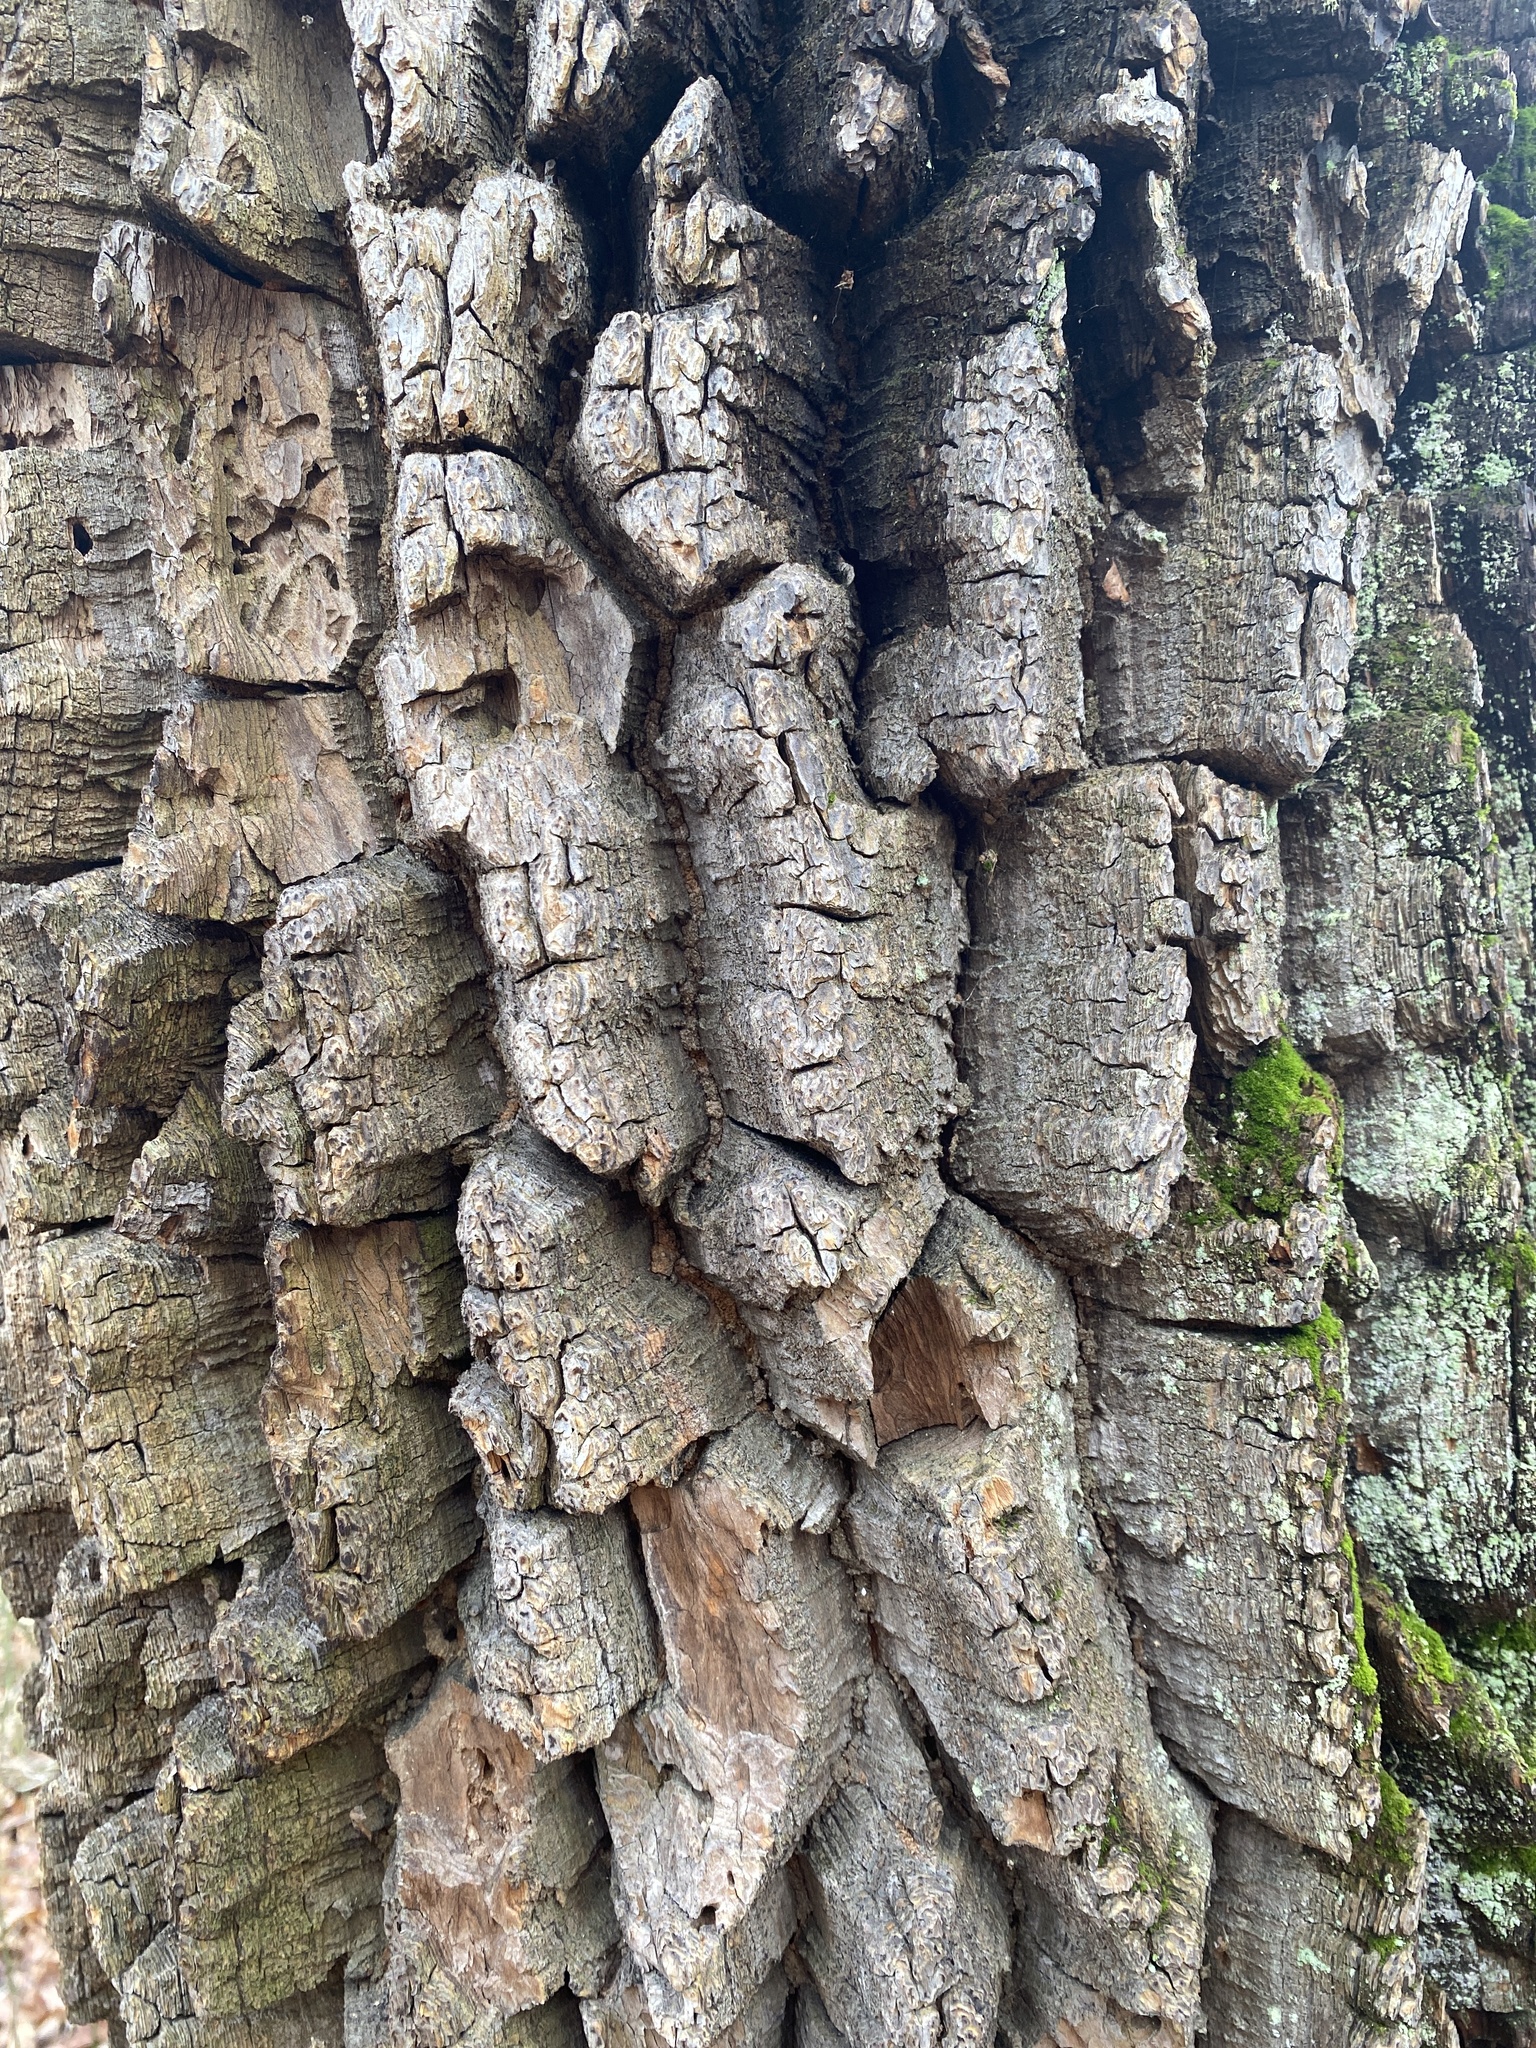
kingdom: Plantae
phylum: Tracheophyta
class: Magnoliopsida
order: Ericales
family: Ericaceae
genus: Oxydendrum
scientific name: Oxydendrum arboreum
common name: Sourwood
